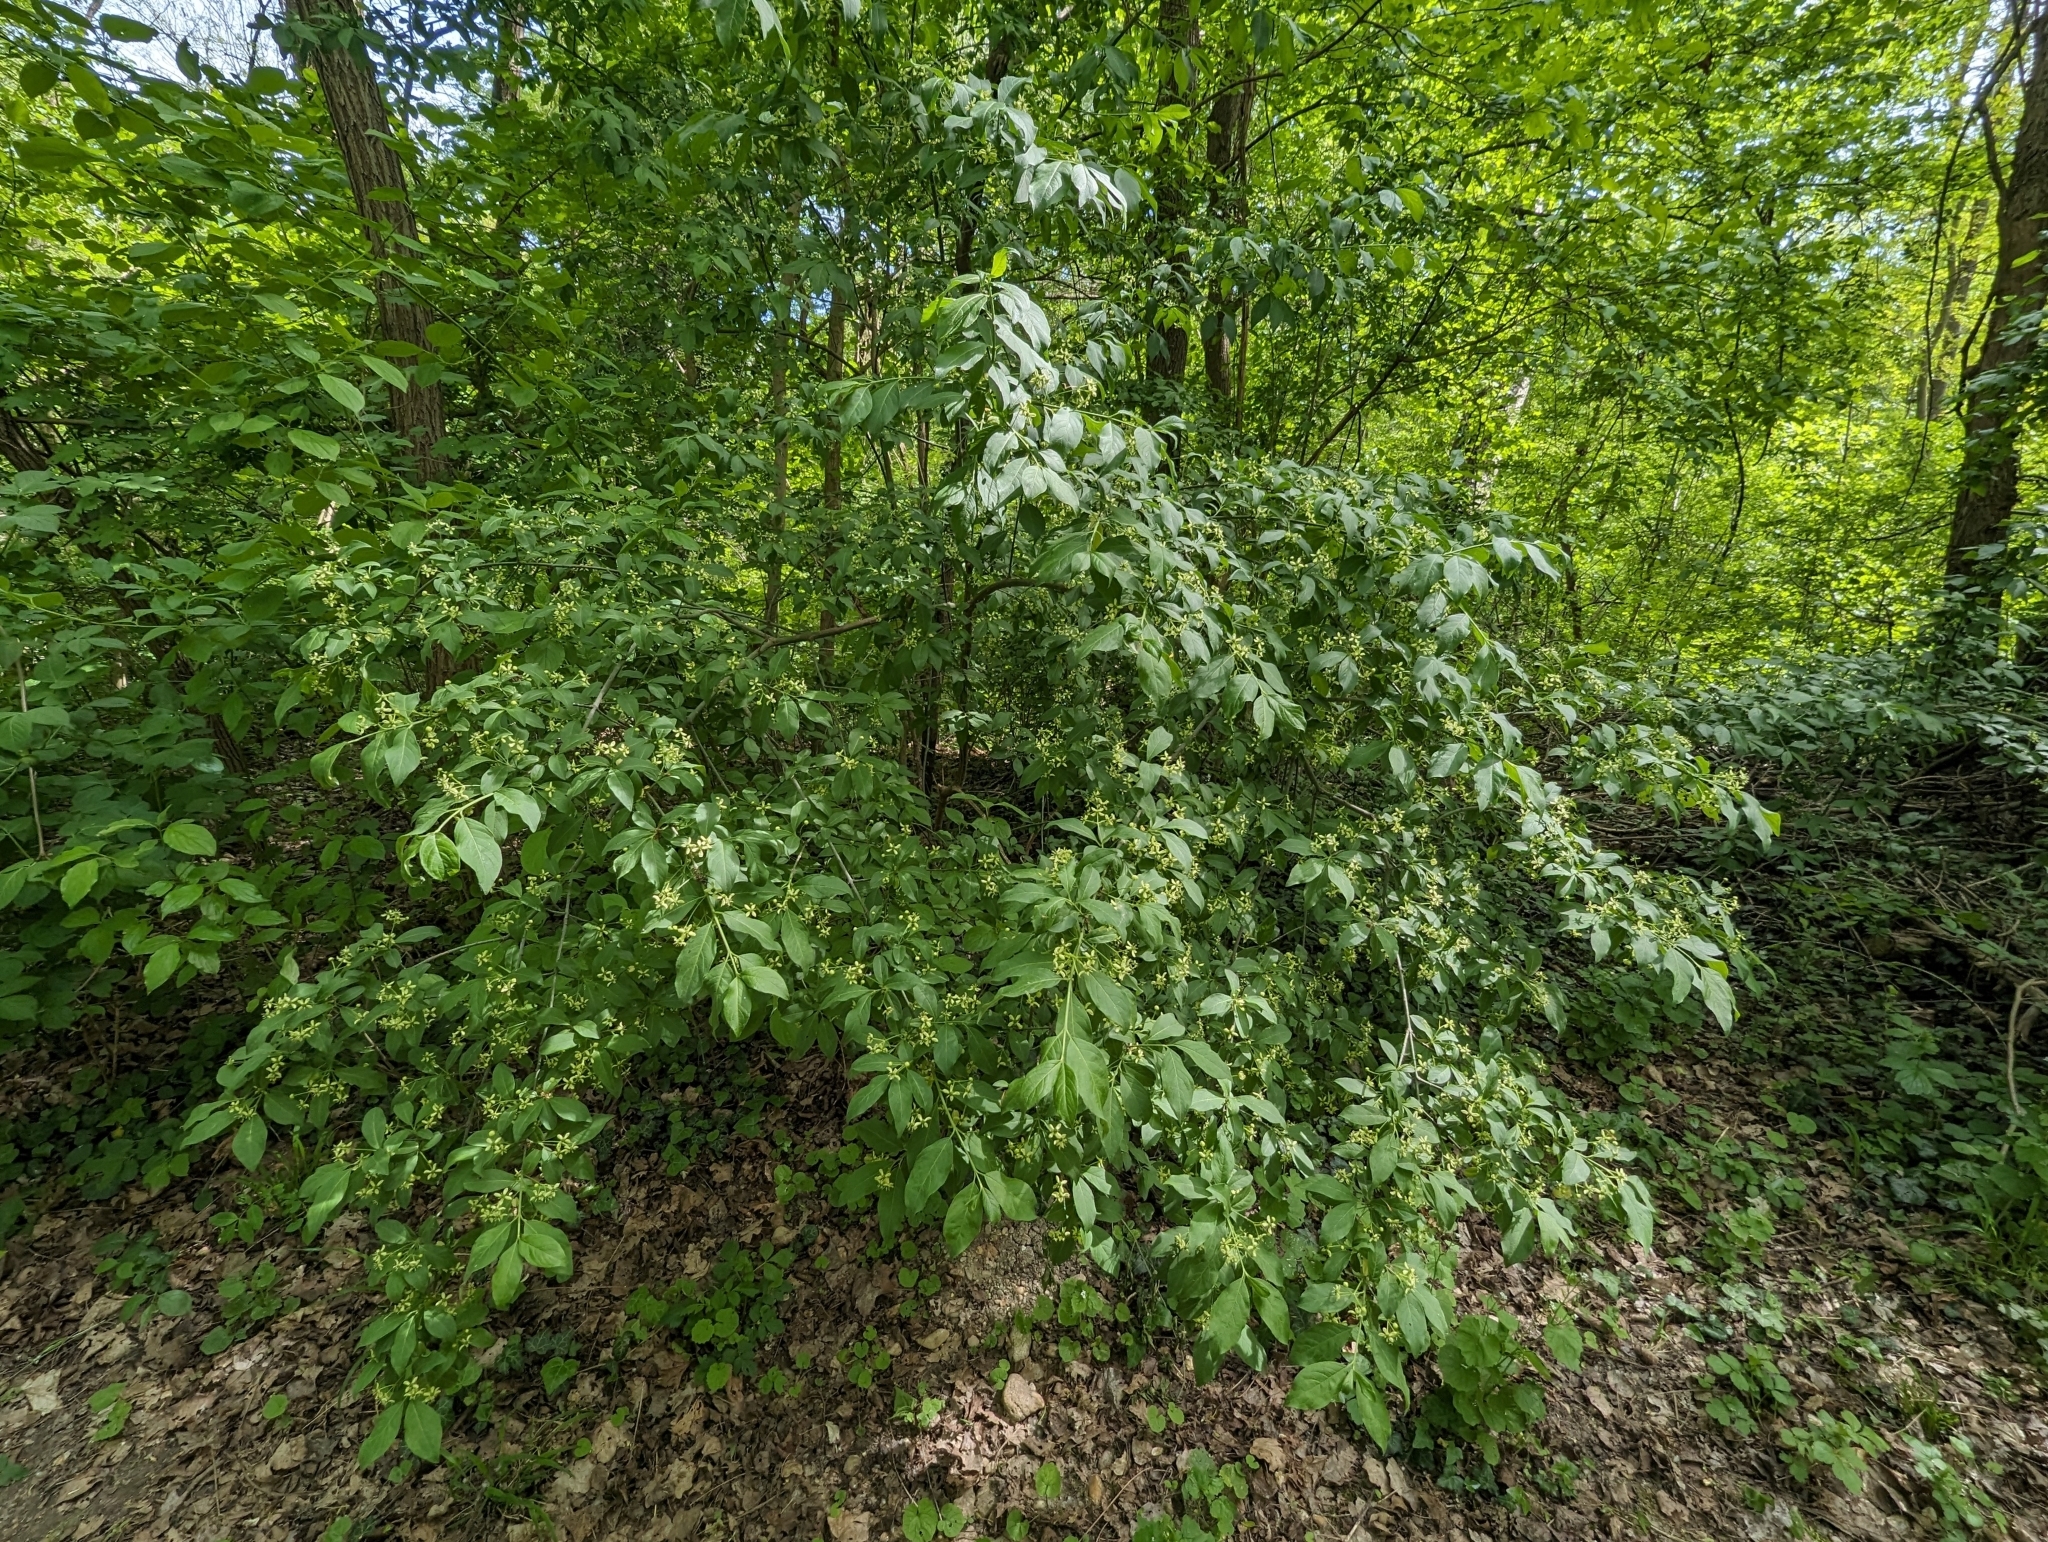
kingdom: Plantae
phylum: Tracheophyta
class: Magnoliopsida
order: Celastrales
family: Celastraceae
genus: Euonymus
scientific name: Euonymus europaeus
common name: Spindle
